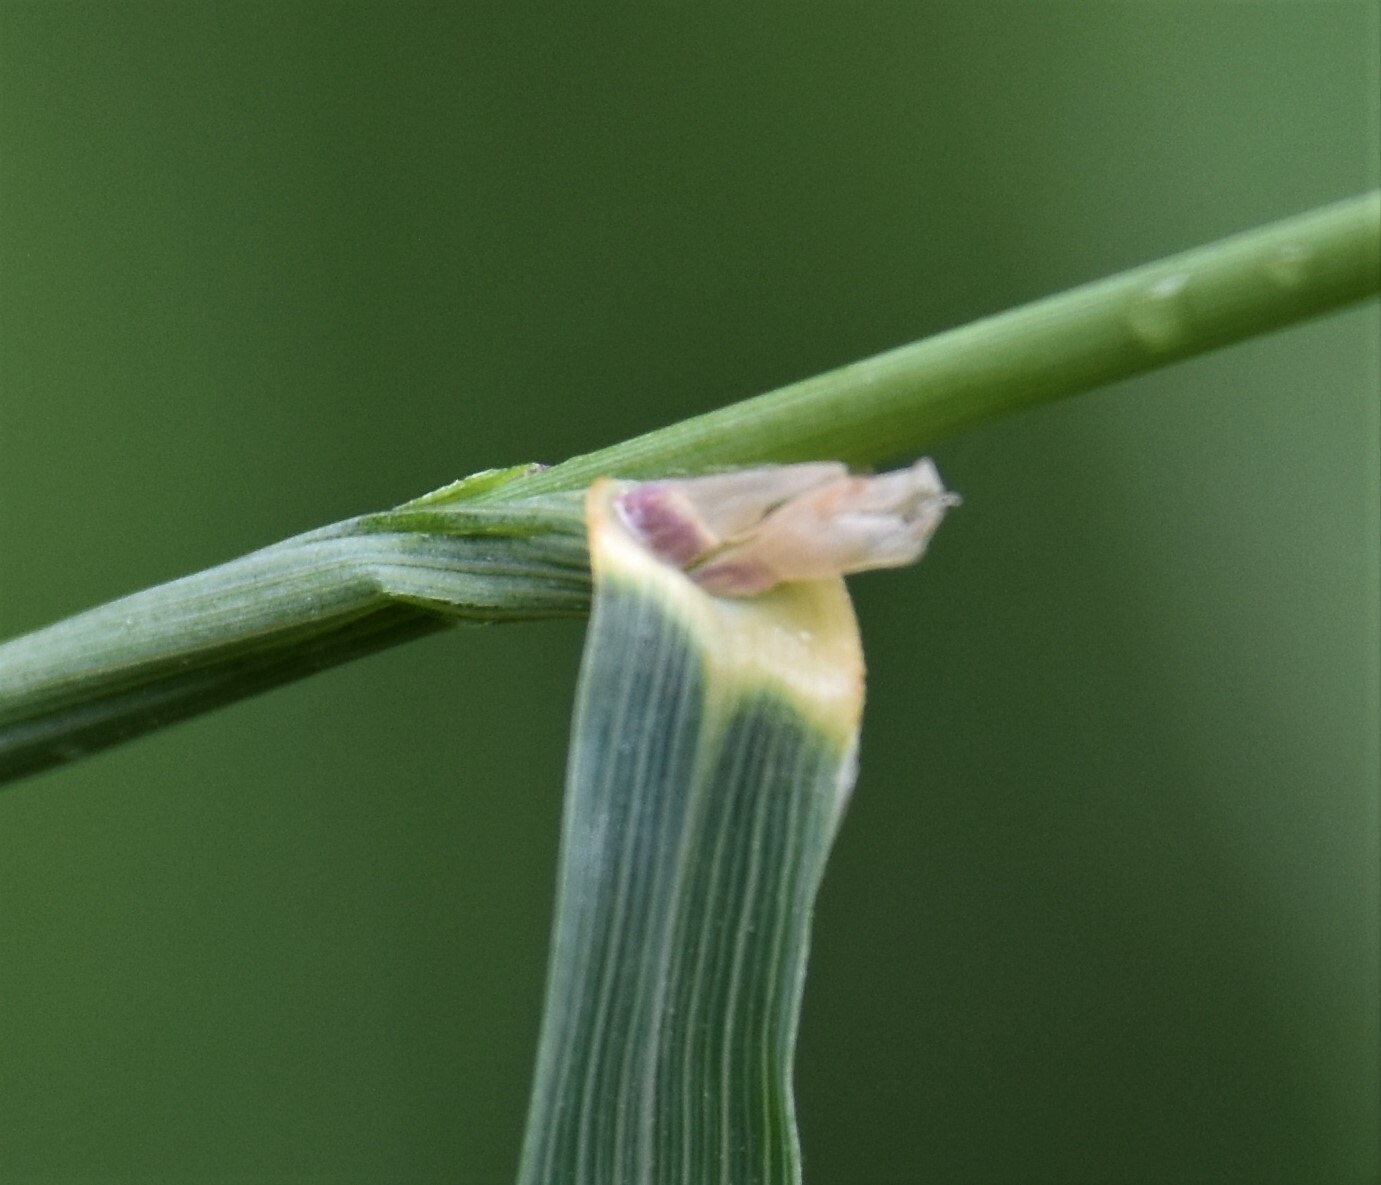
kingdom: Plantae
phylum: Tracheophyta
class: Liliopsida
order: Poales
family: Poaceae
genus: Calamagrostis
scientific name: Calamagrostis canadensis
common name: Canada bluejoint
